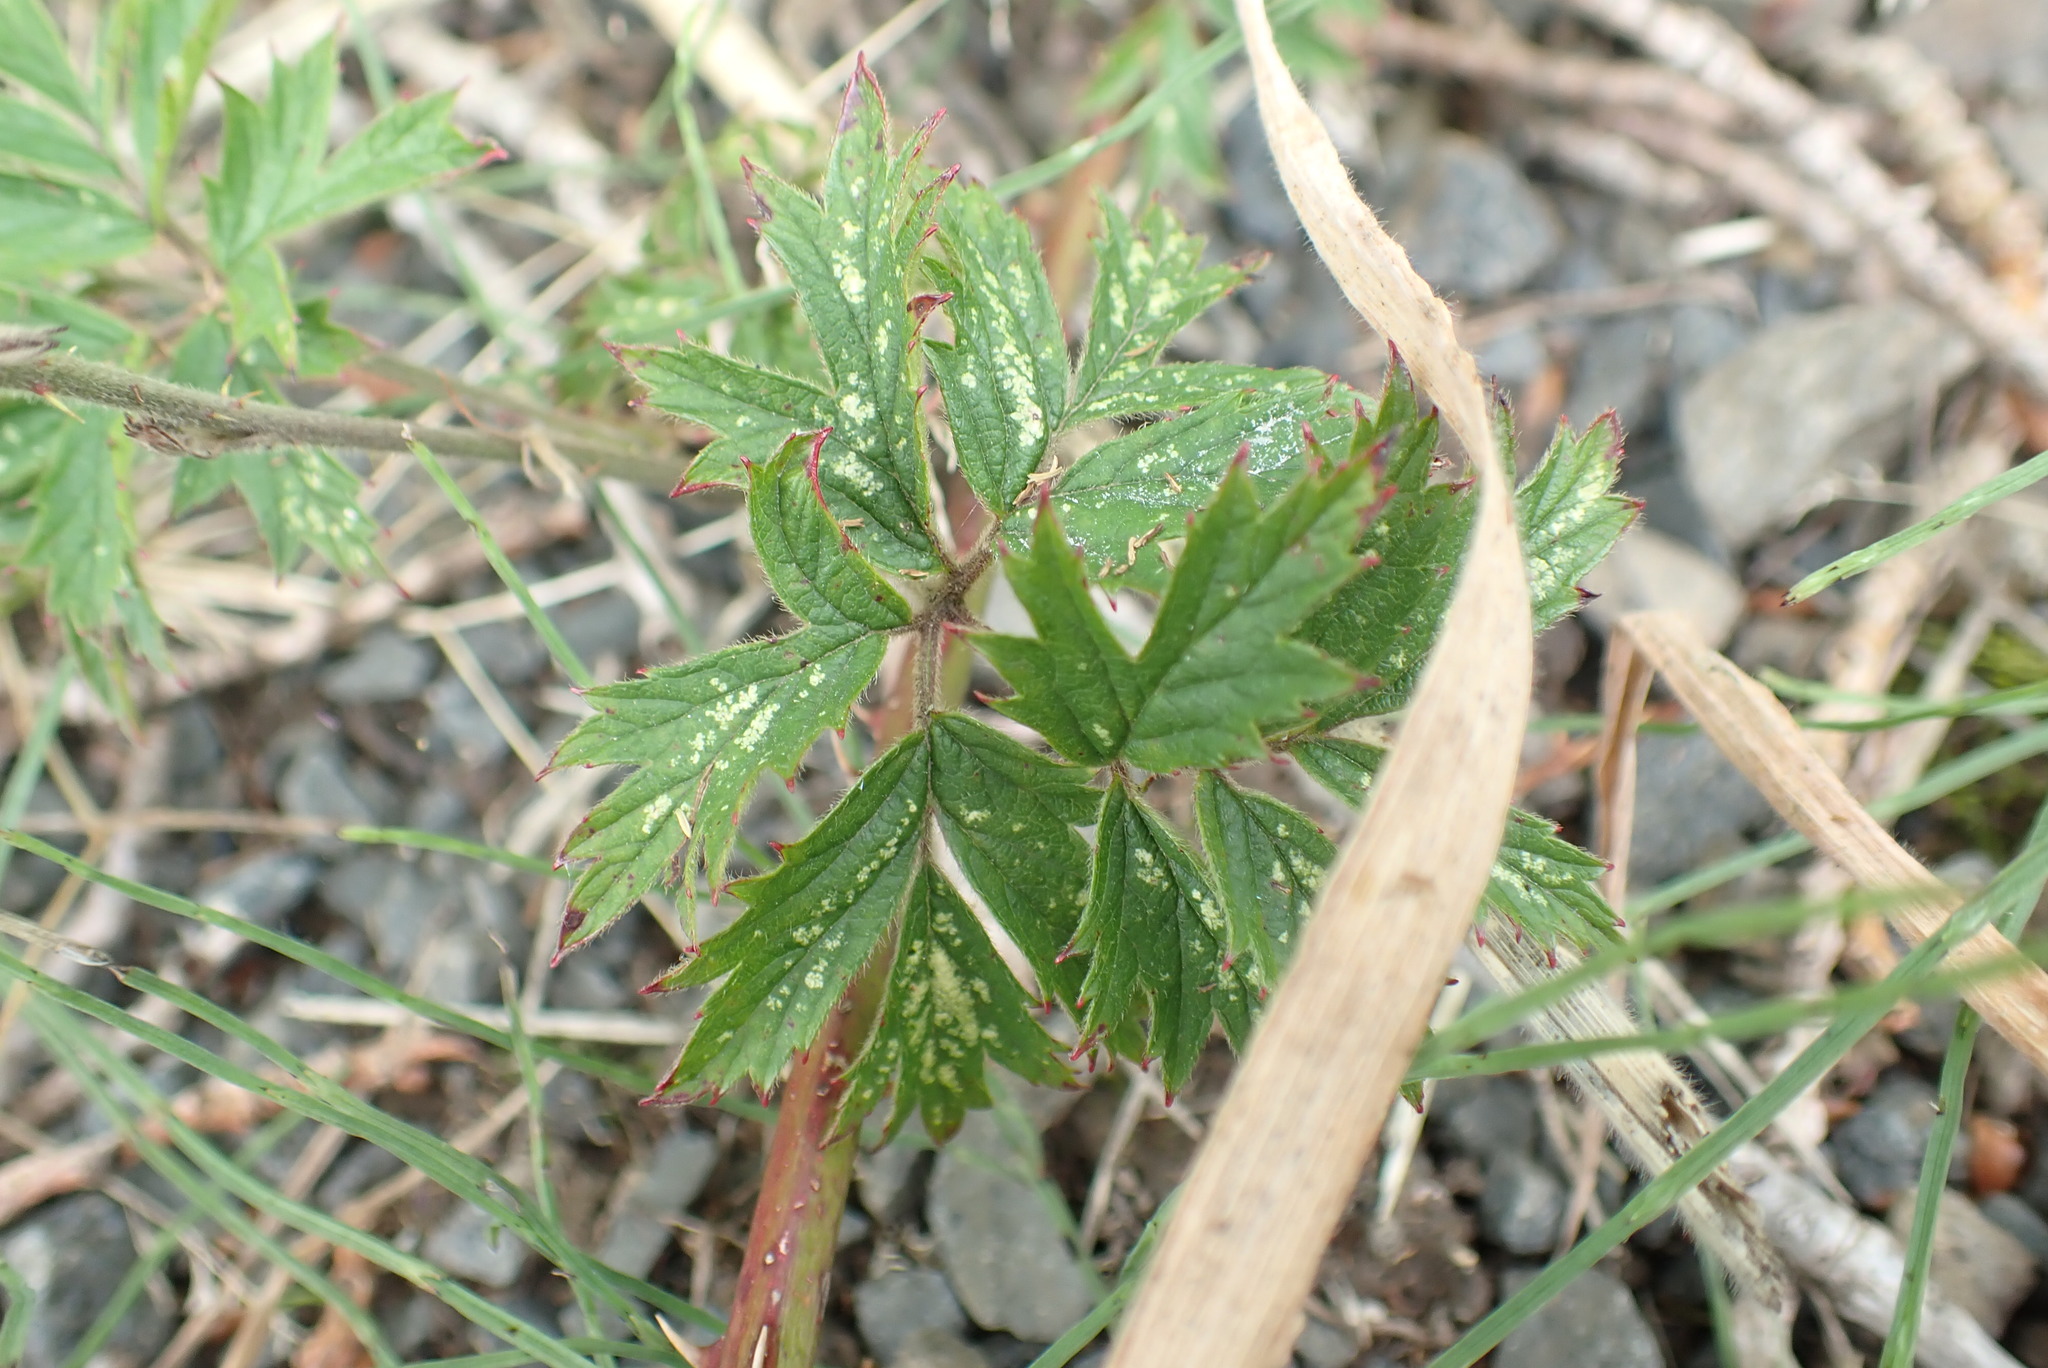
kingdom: Plantae
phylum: Tracheophyta
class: Magnoliopsida
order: Rosales
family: Rosaceae
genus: Rubus
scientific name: Rubus laciniatus
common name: Evergreen blackberry
